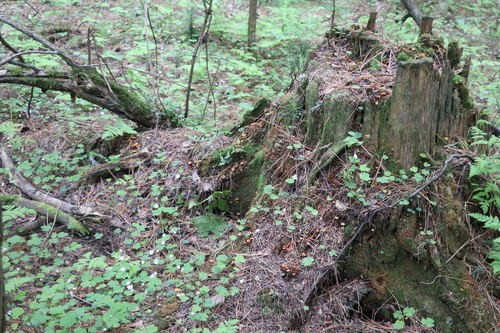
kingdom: Fungi
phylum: Basidiomycota
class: Agaricomycetes
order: Agaricales
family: Mycenaceae
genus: Xeromphalina
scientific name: Xeromphalina campanella
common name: Pinewood gingertail
